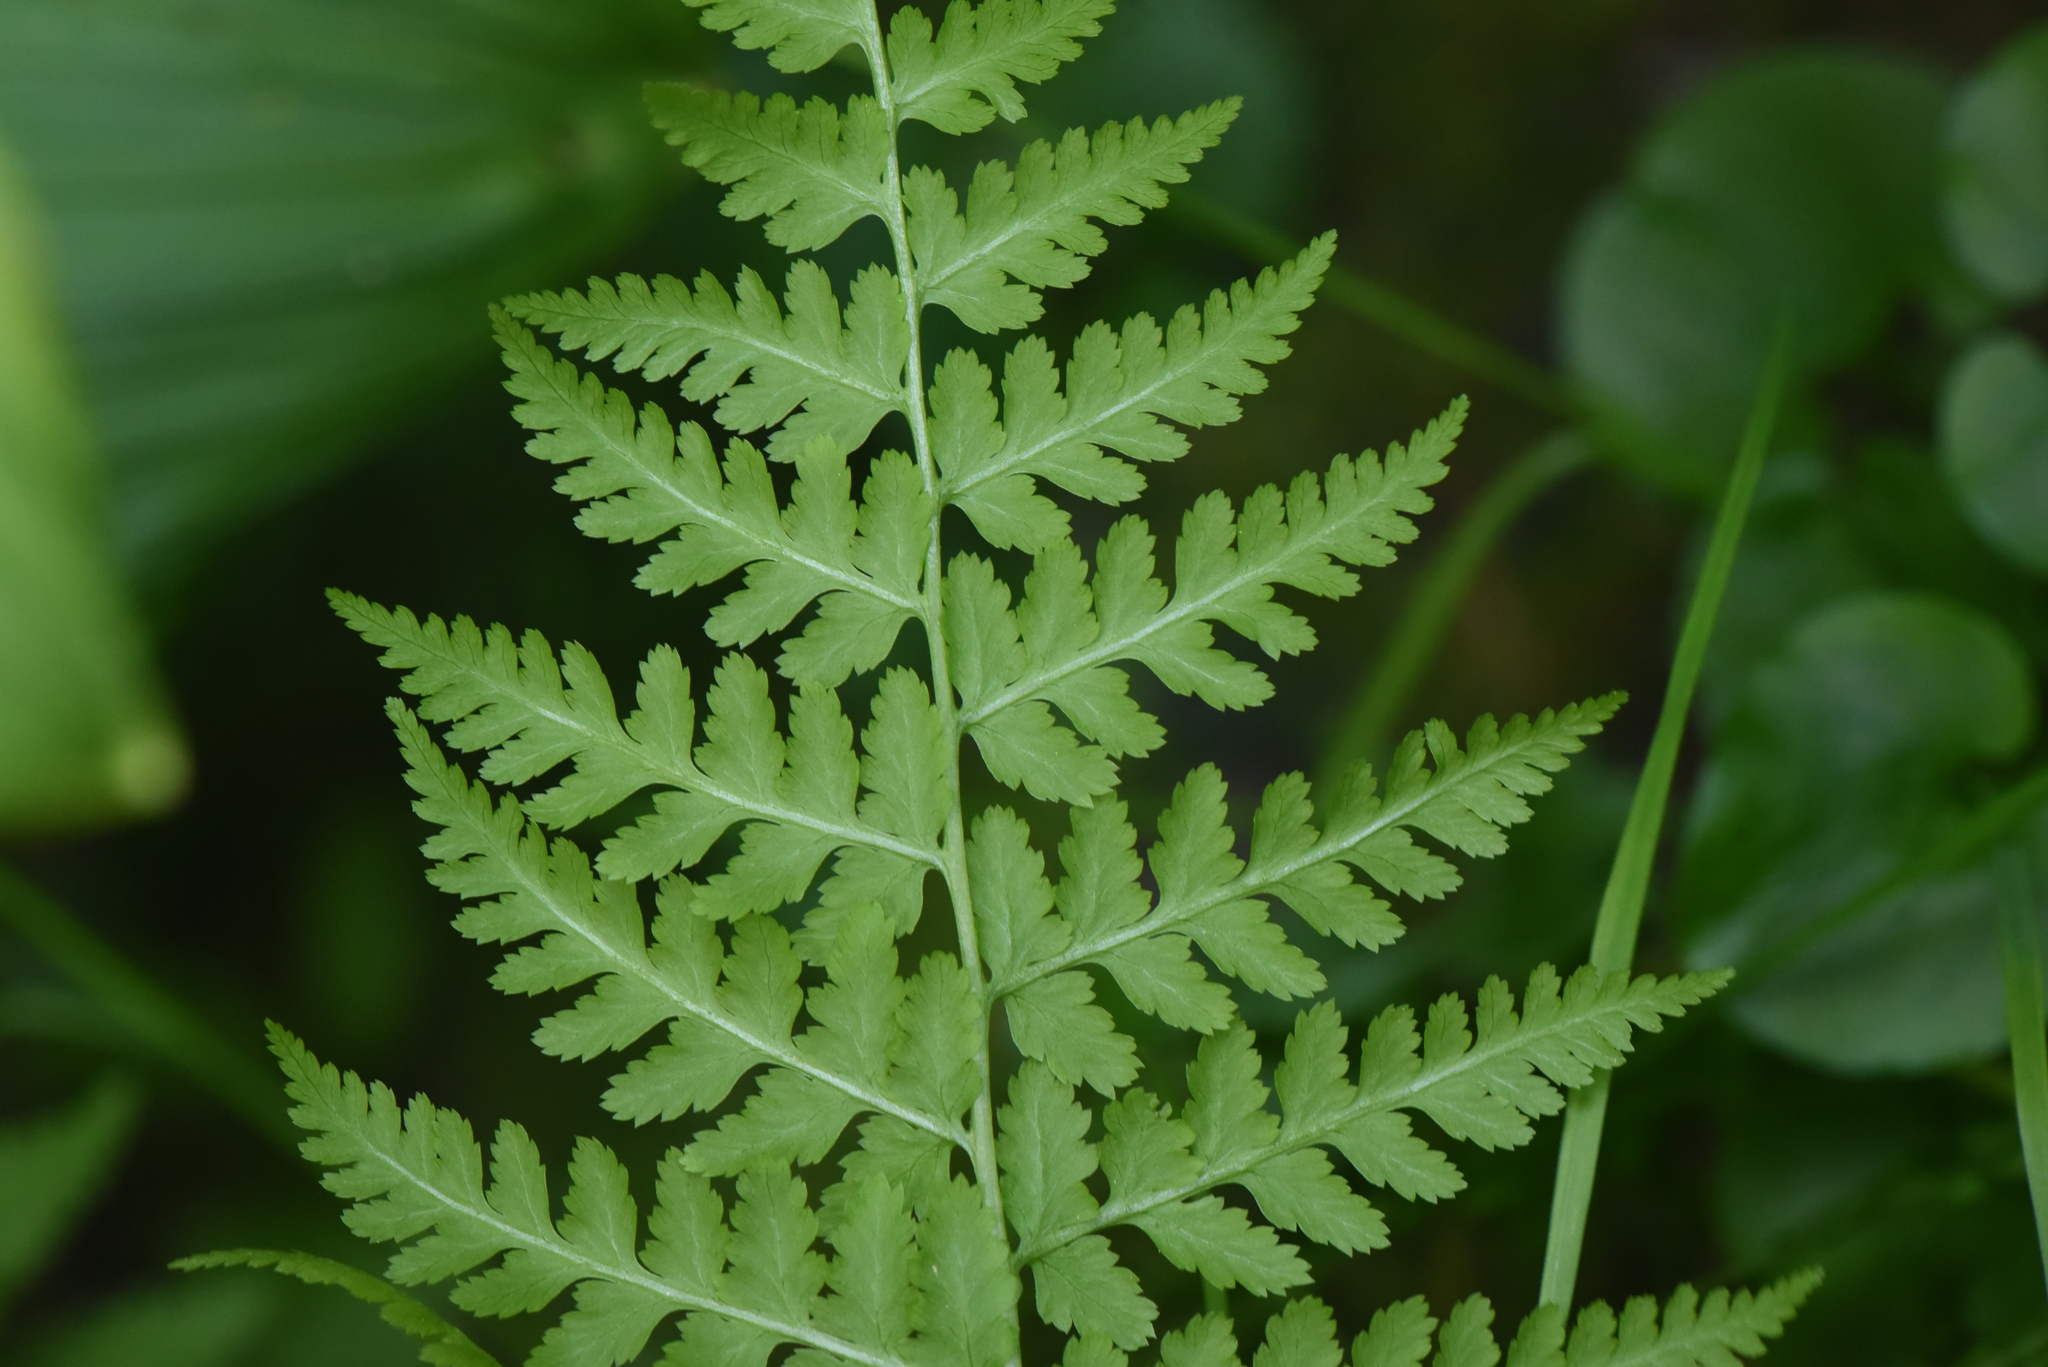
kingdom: Plantae
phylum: Tracheophyta
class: Polypodiopsida
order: Polypodiales
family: Athyriaceae
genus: Athyrium
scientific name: Athyrium filix-femina
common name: Lady fern
